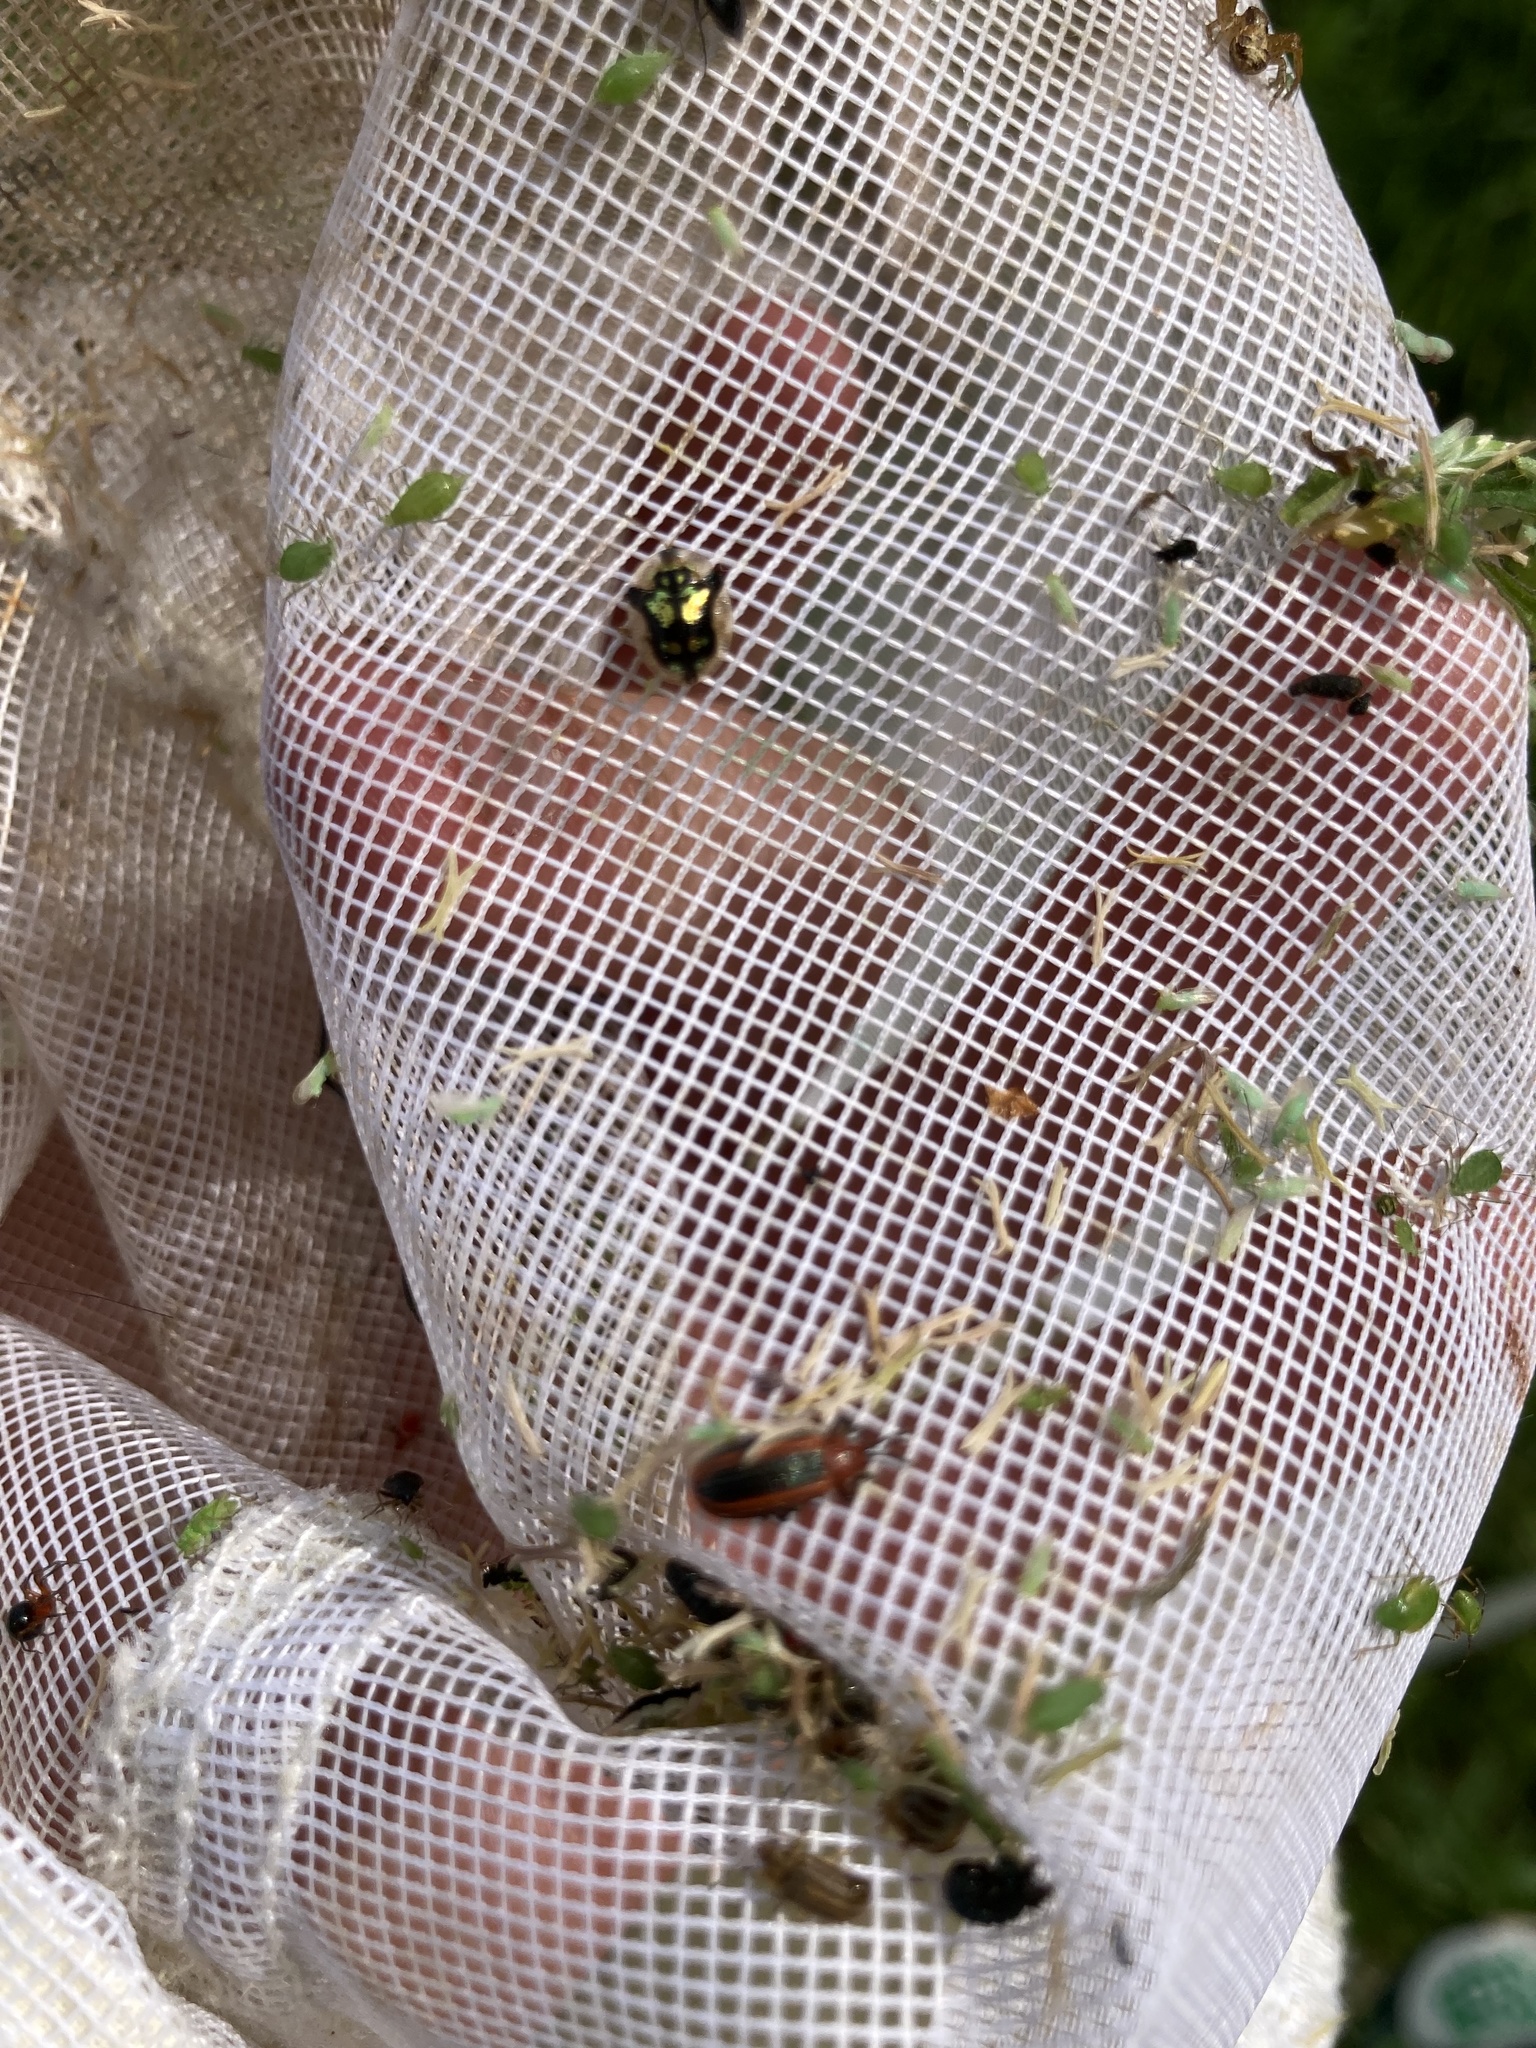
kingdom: Animalia
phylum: Arthropoda
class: Insecta
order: Coleoptera
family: Chrysomelidae
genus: Deloyala
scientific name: Deloyala guttata
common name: Mottled tortoise beetle
